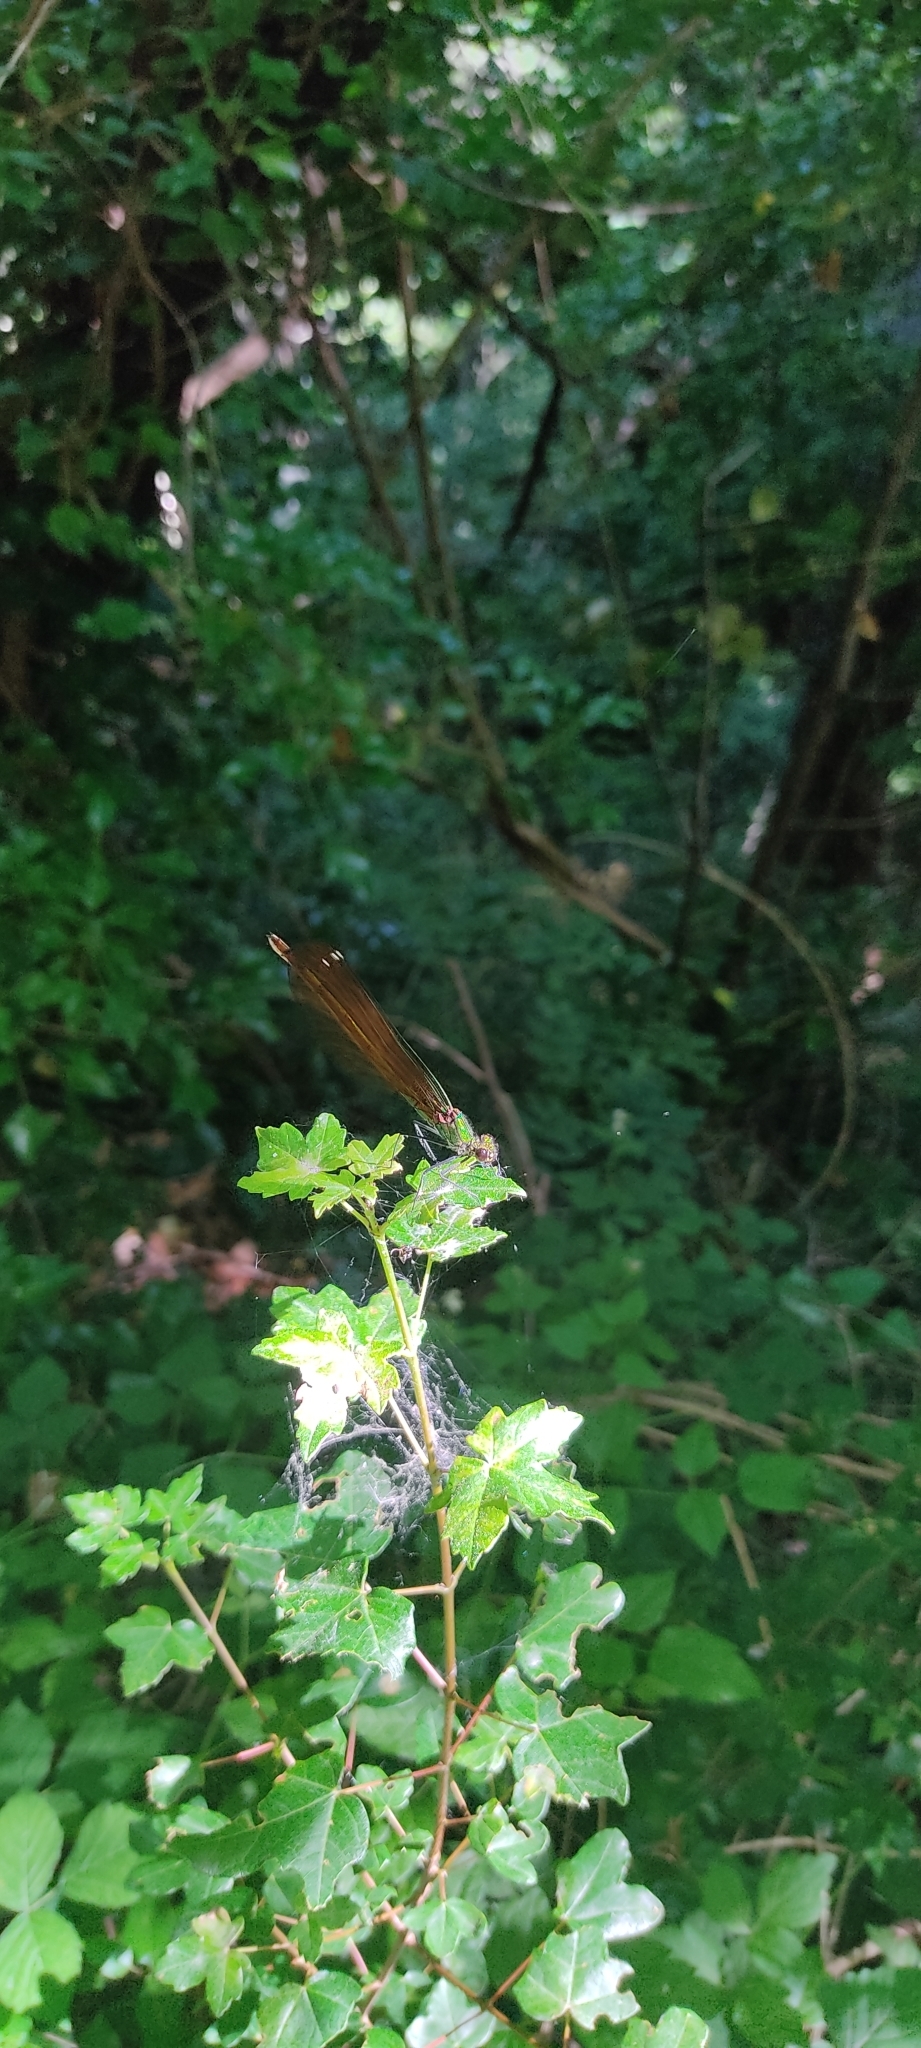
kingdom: Animalia
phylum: Arthropoda
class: Insecta
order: Odonata
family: Calopterygidae
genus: Calopteryx
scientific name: Calopteryx virgo
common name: Beautiful demoiselle
